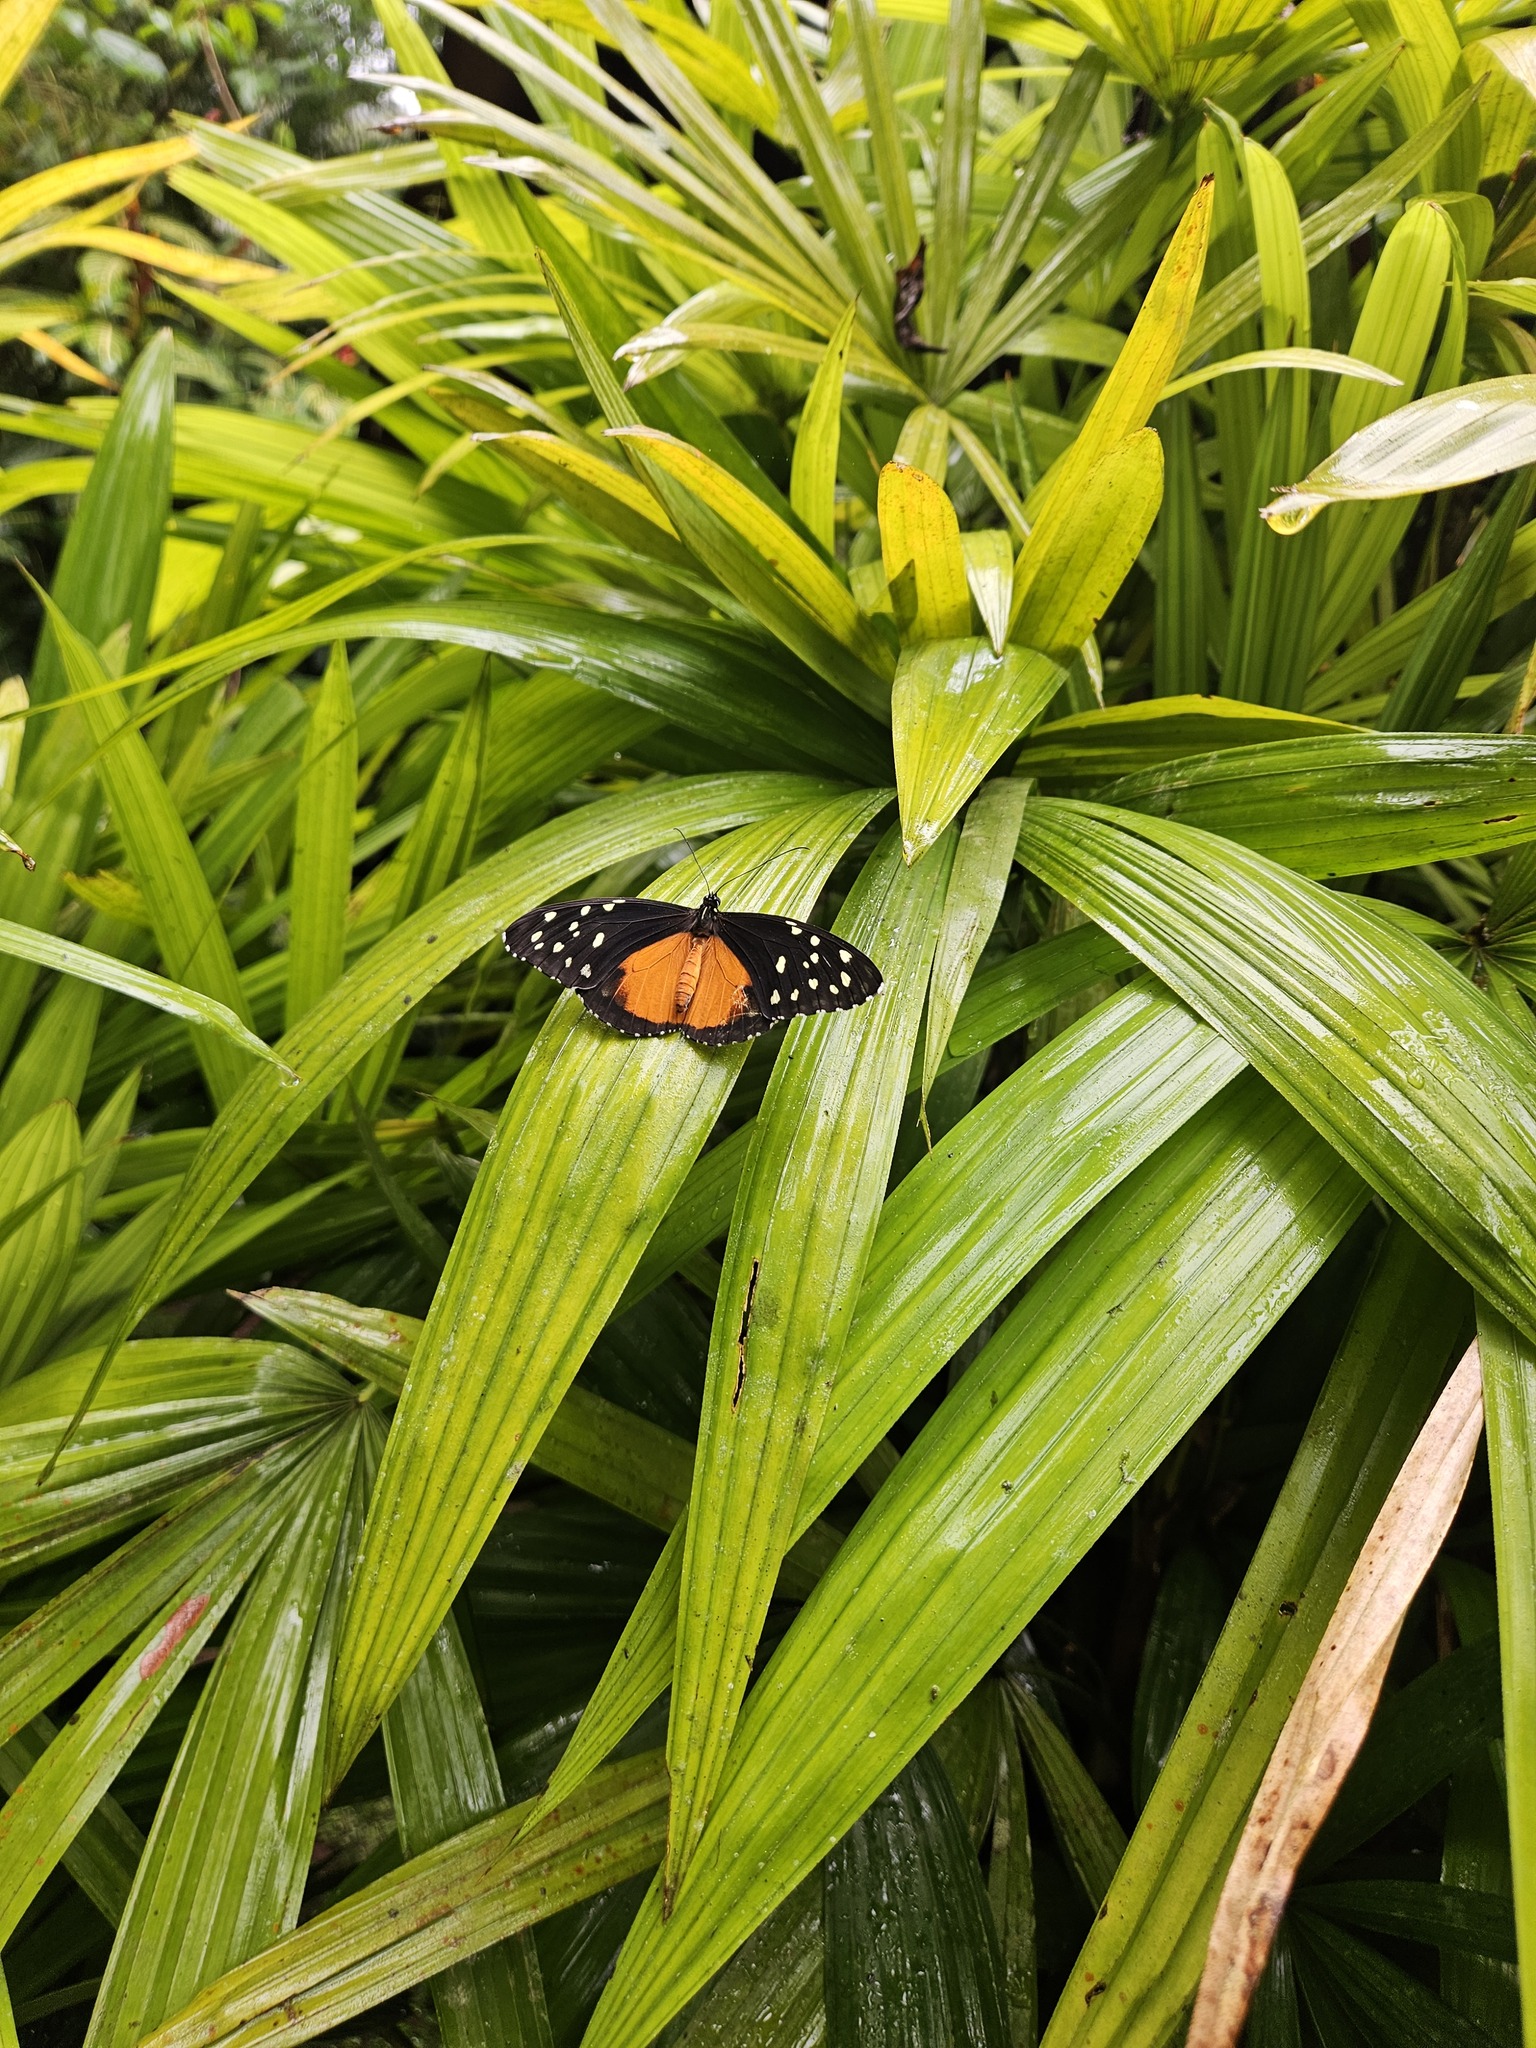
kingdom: Animalia
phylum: Arthropoda
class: Insecta
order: Lepidoptera
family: Nymphalidae
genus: Tithorea
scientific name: Tithorea tarricina
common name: Cream-spotted tigerwing
